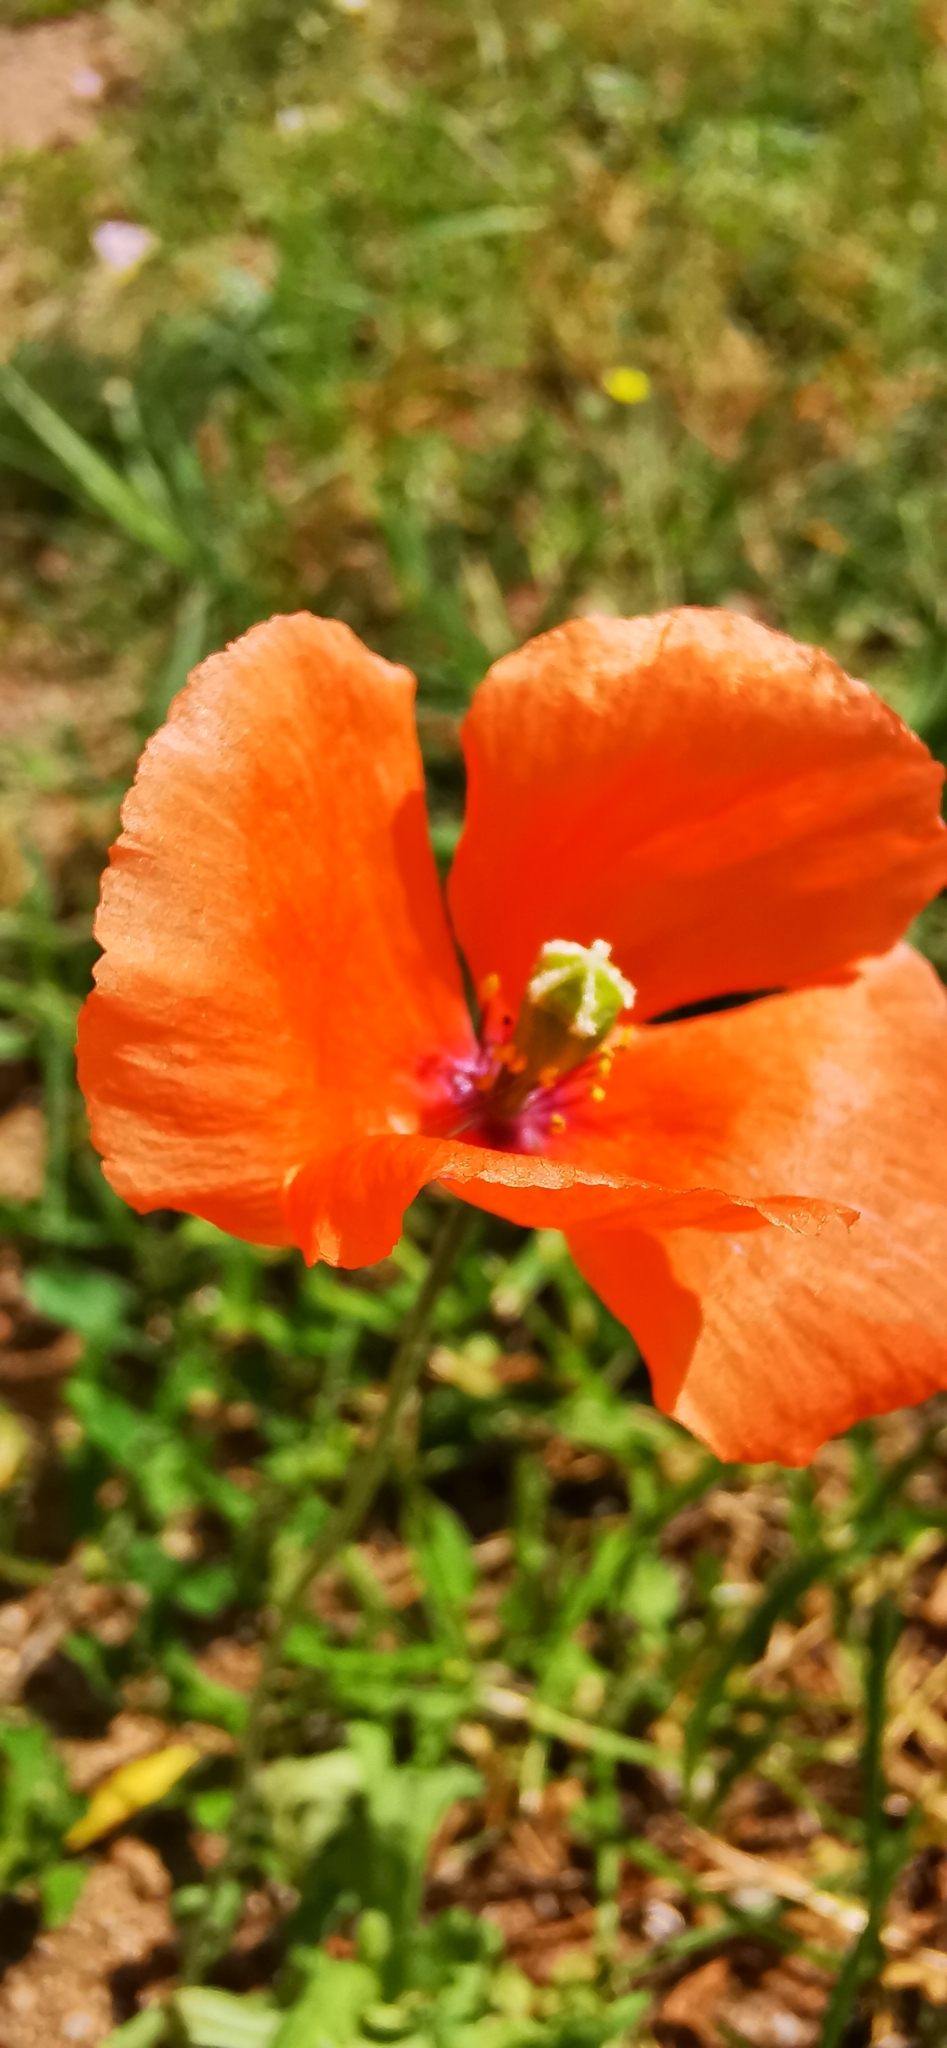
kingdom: Plantae
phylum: Tracheophyta
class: Magnoliopsida
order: Ranunculales
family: Papaveraceae
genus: Papaver
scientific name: Papaver dubium
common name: Long-headed poppy
